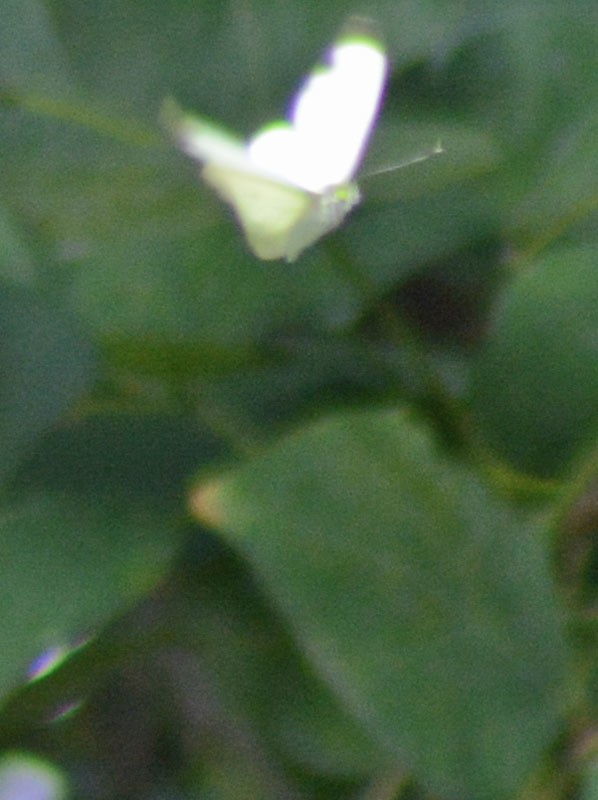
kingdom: Animalia
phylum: Arthropoda
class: Insecta
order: Lepidoptera
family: Pieridae
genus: Leptophobia
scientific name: Leptophobia aripa
